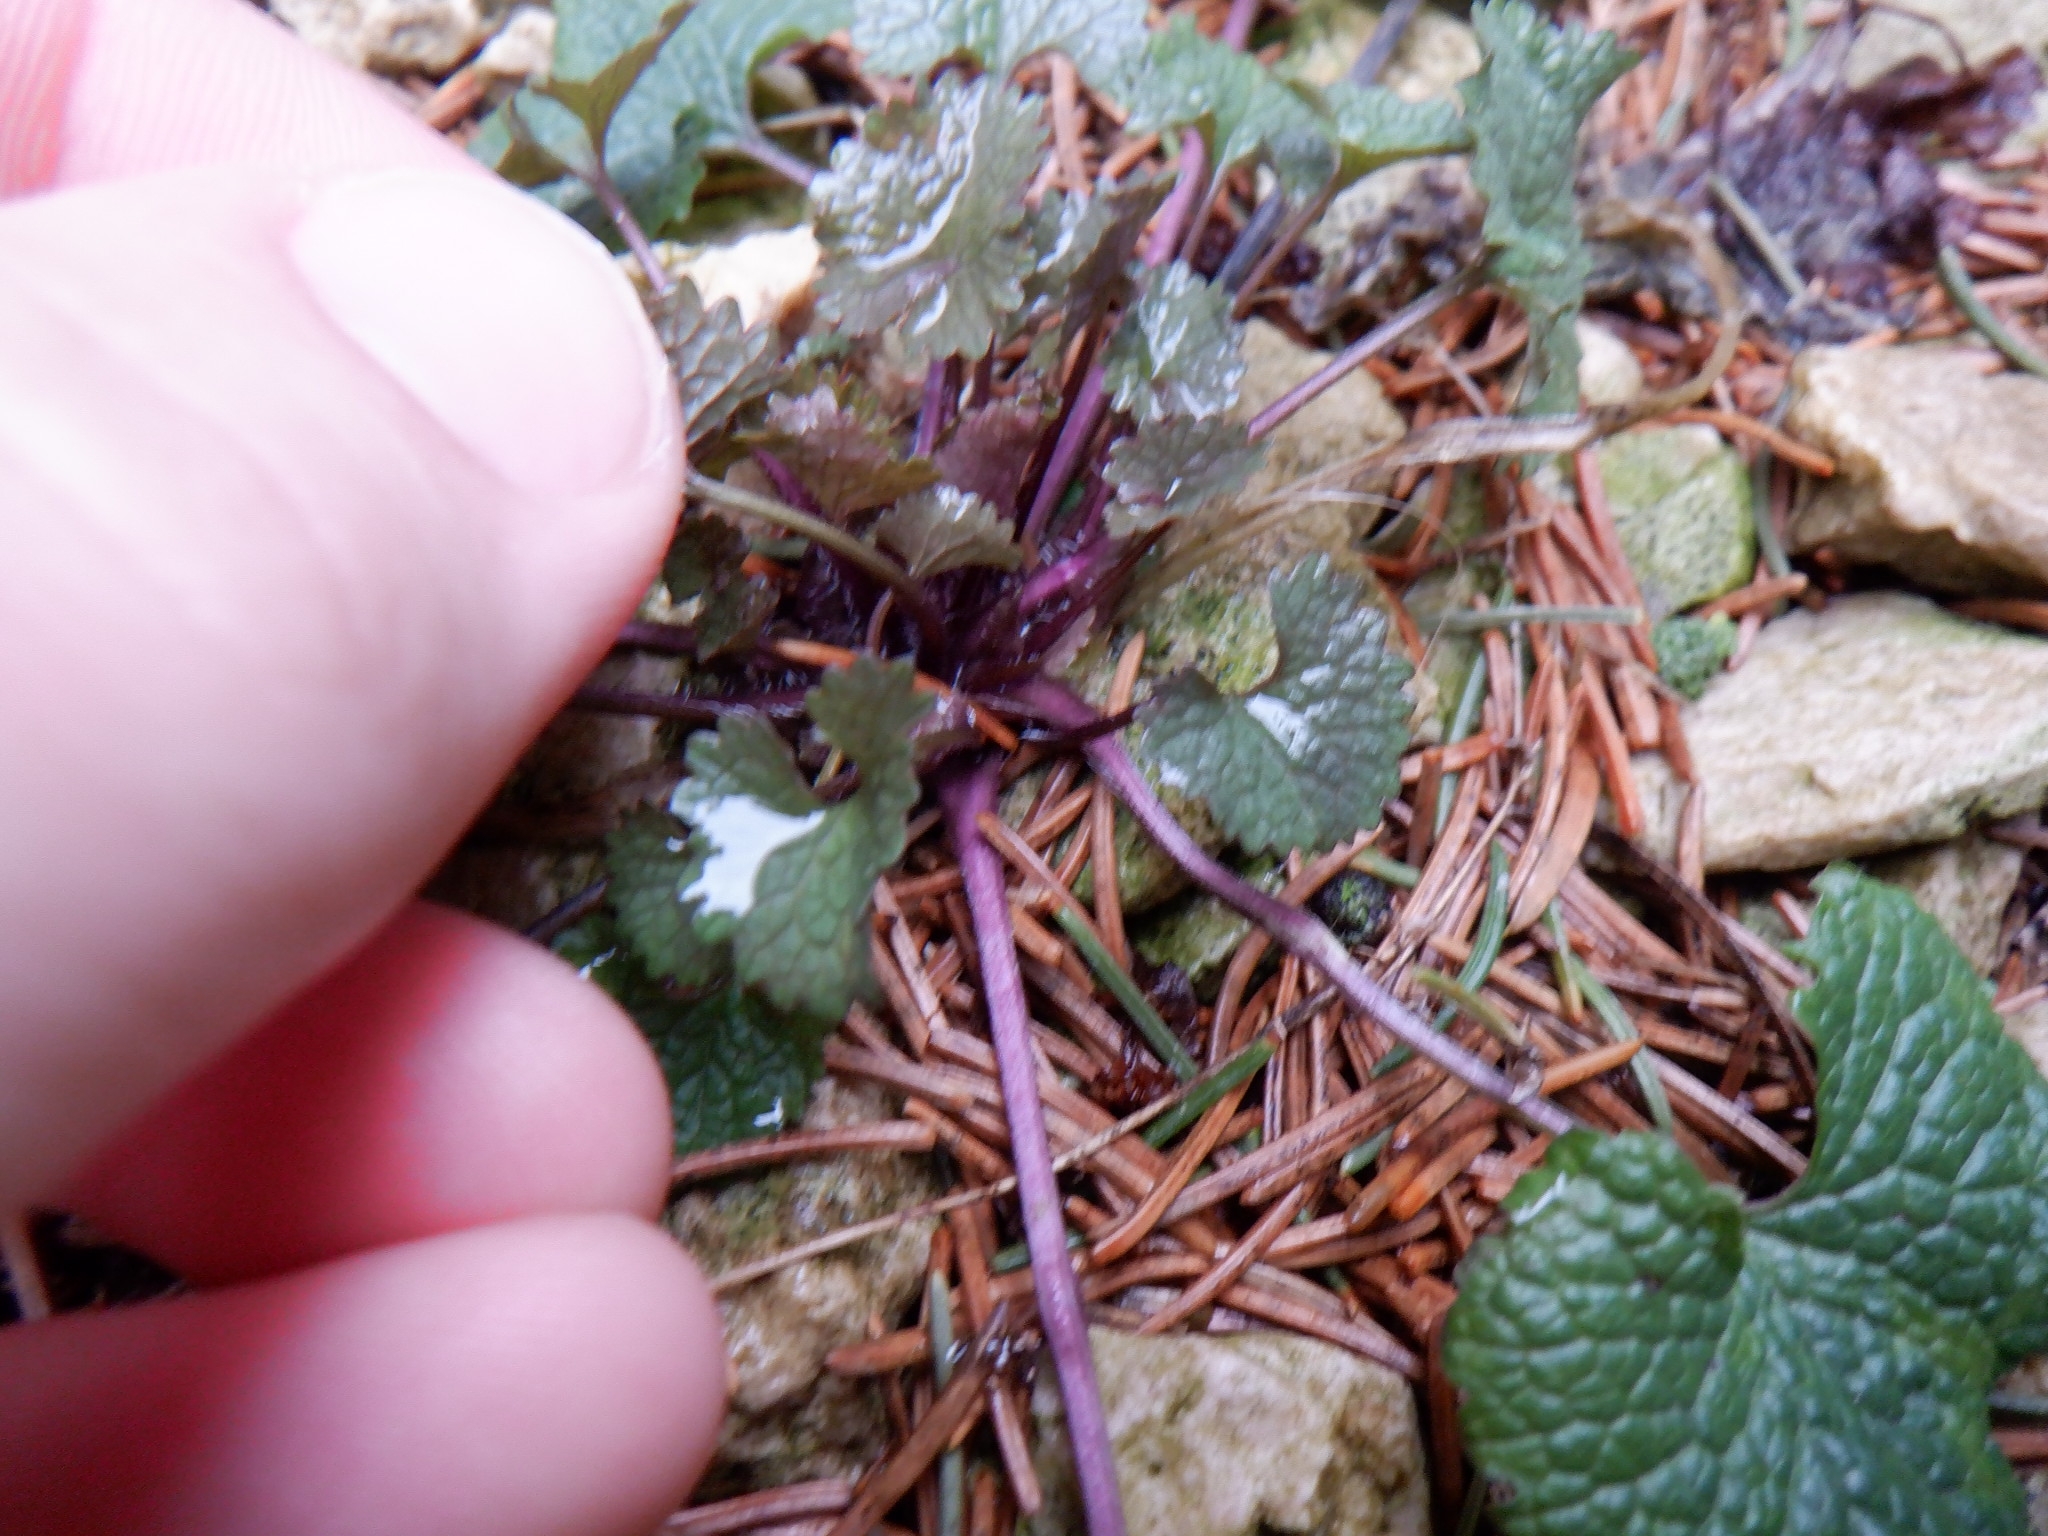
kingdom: Plantae
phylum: Tracheophyta
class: Magnoliopsida
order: Brassicales
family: Brassicaceae
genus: Alliaria
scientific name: Alliaria petiolata
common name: Garlic mustard
